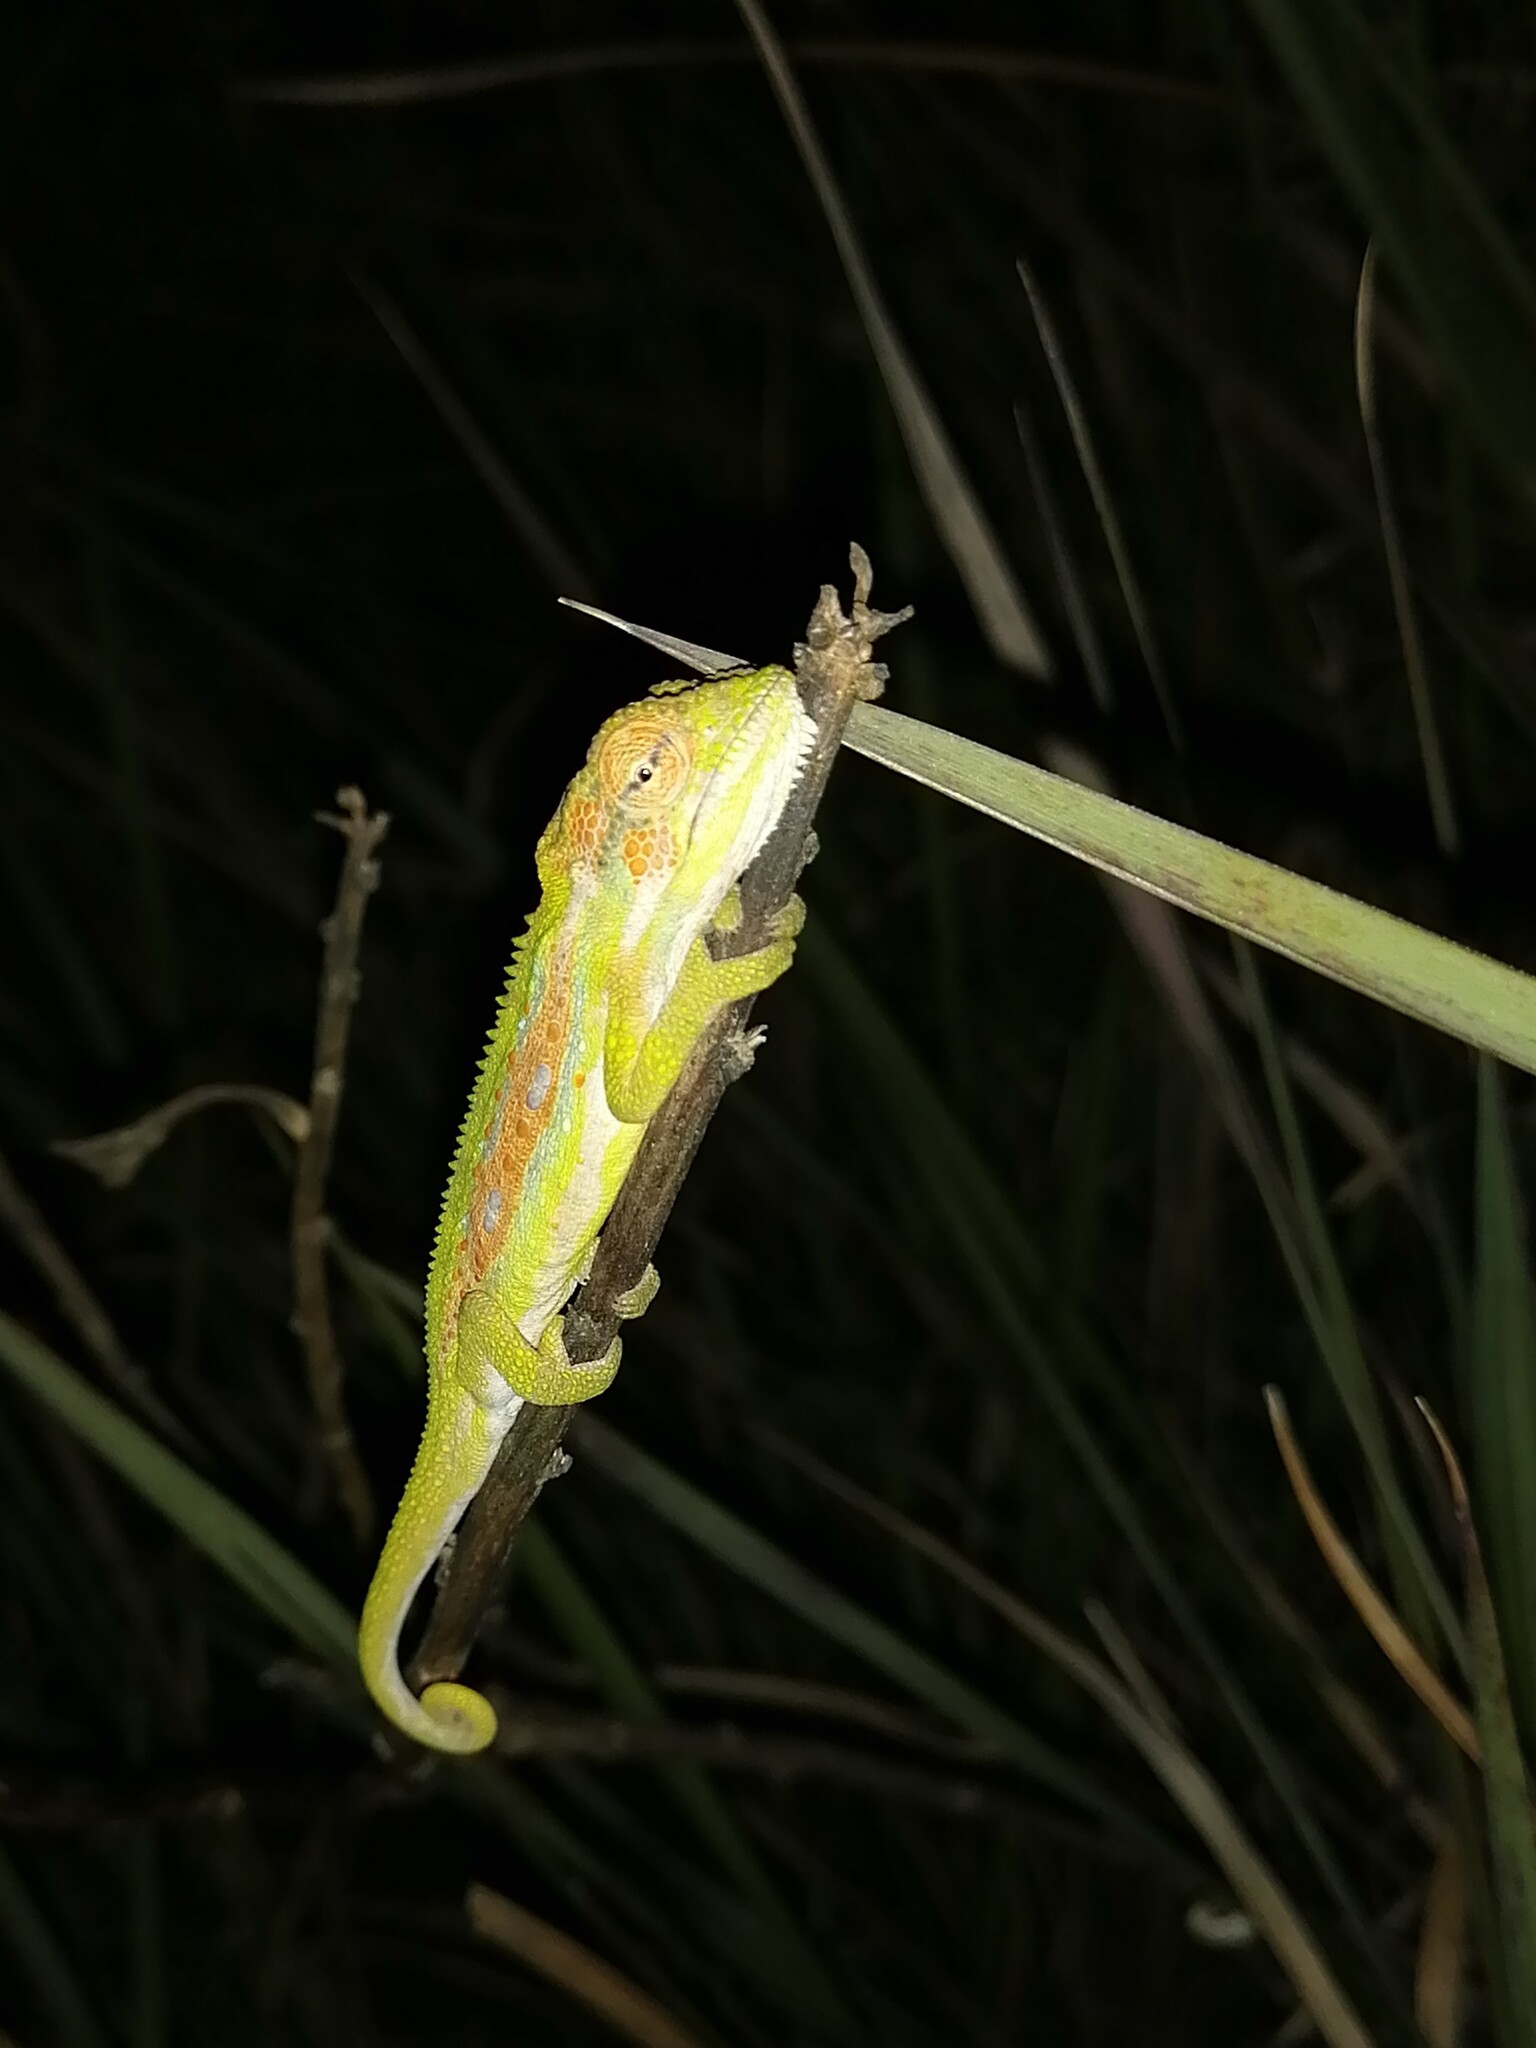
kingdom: Animalia
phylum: Chordata
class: Squamata
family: Chamaeleonidae
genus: Bradypodion
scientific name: Bradypodion pumilum
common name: Cape dwarf chameleon
